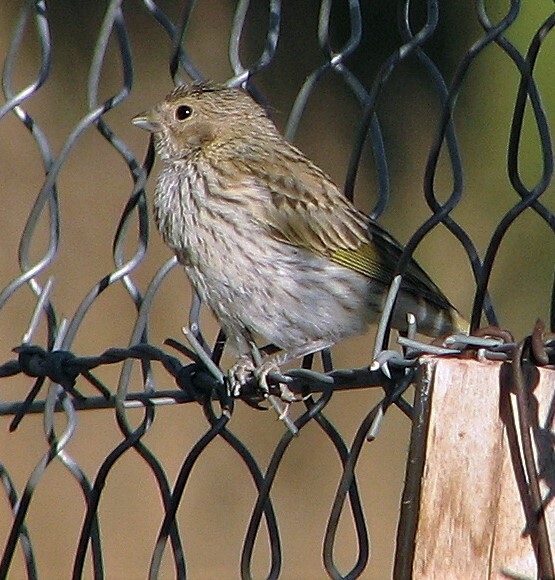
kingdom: Animalia
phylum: Chordata
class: Aves
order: Passeriformes
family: Thraupidae
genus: Sicalis
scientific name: Sicalis flaveola
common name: Saffron finch
